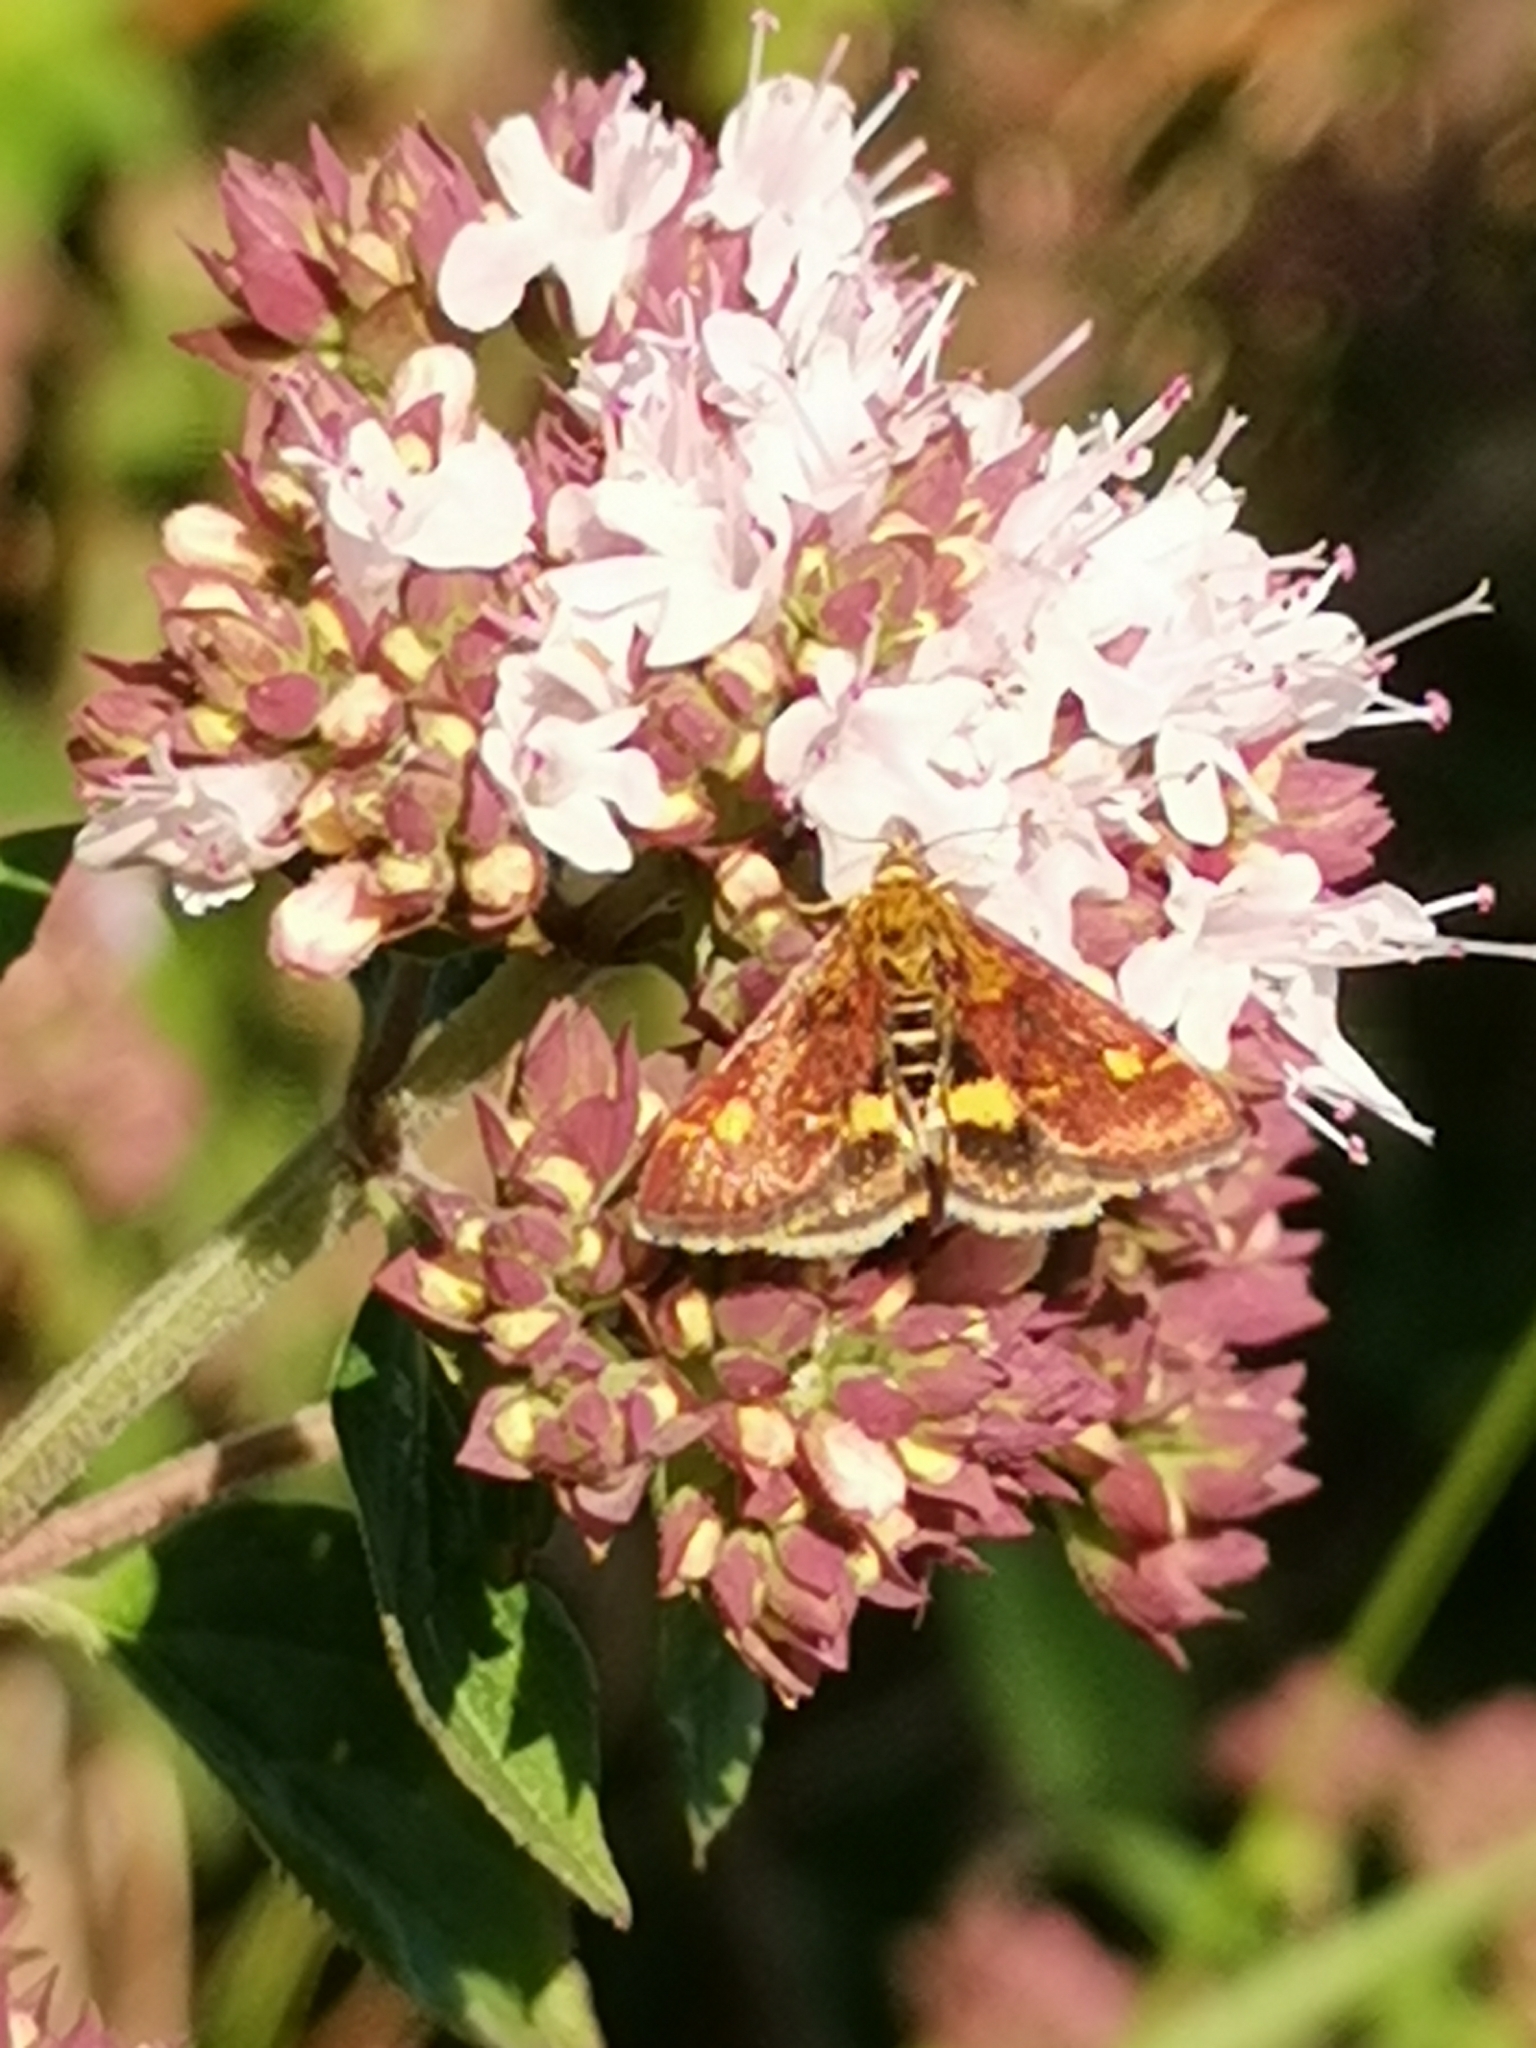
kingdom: Animalia
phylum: Arthropoda
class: Insecta
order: Lepidoptera
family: Crambidae
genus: Pyrausta
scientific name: Pyrausta aurata
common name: Small purple & gold
